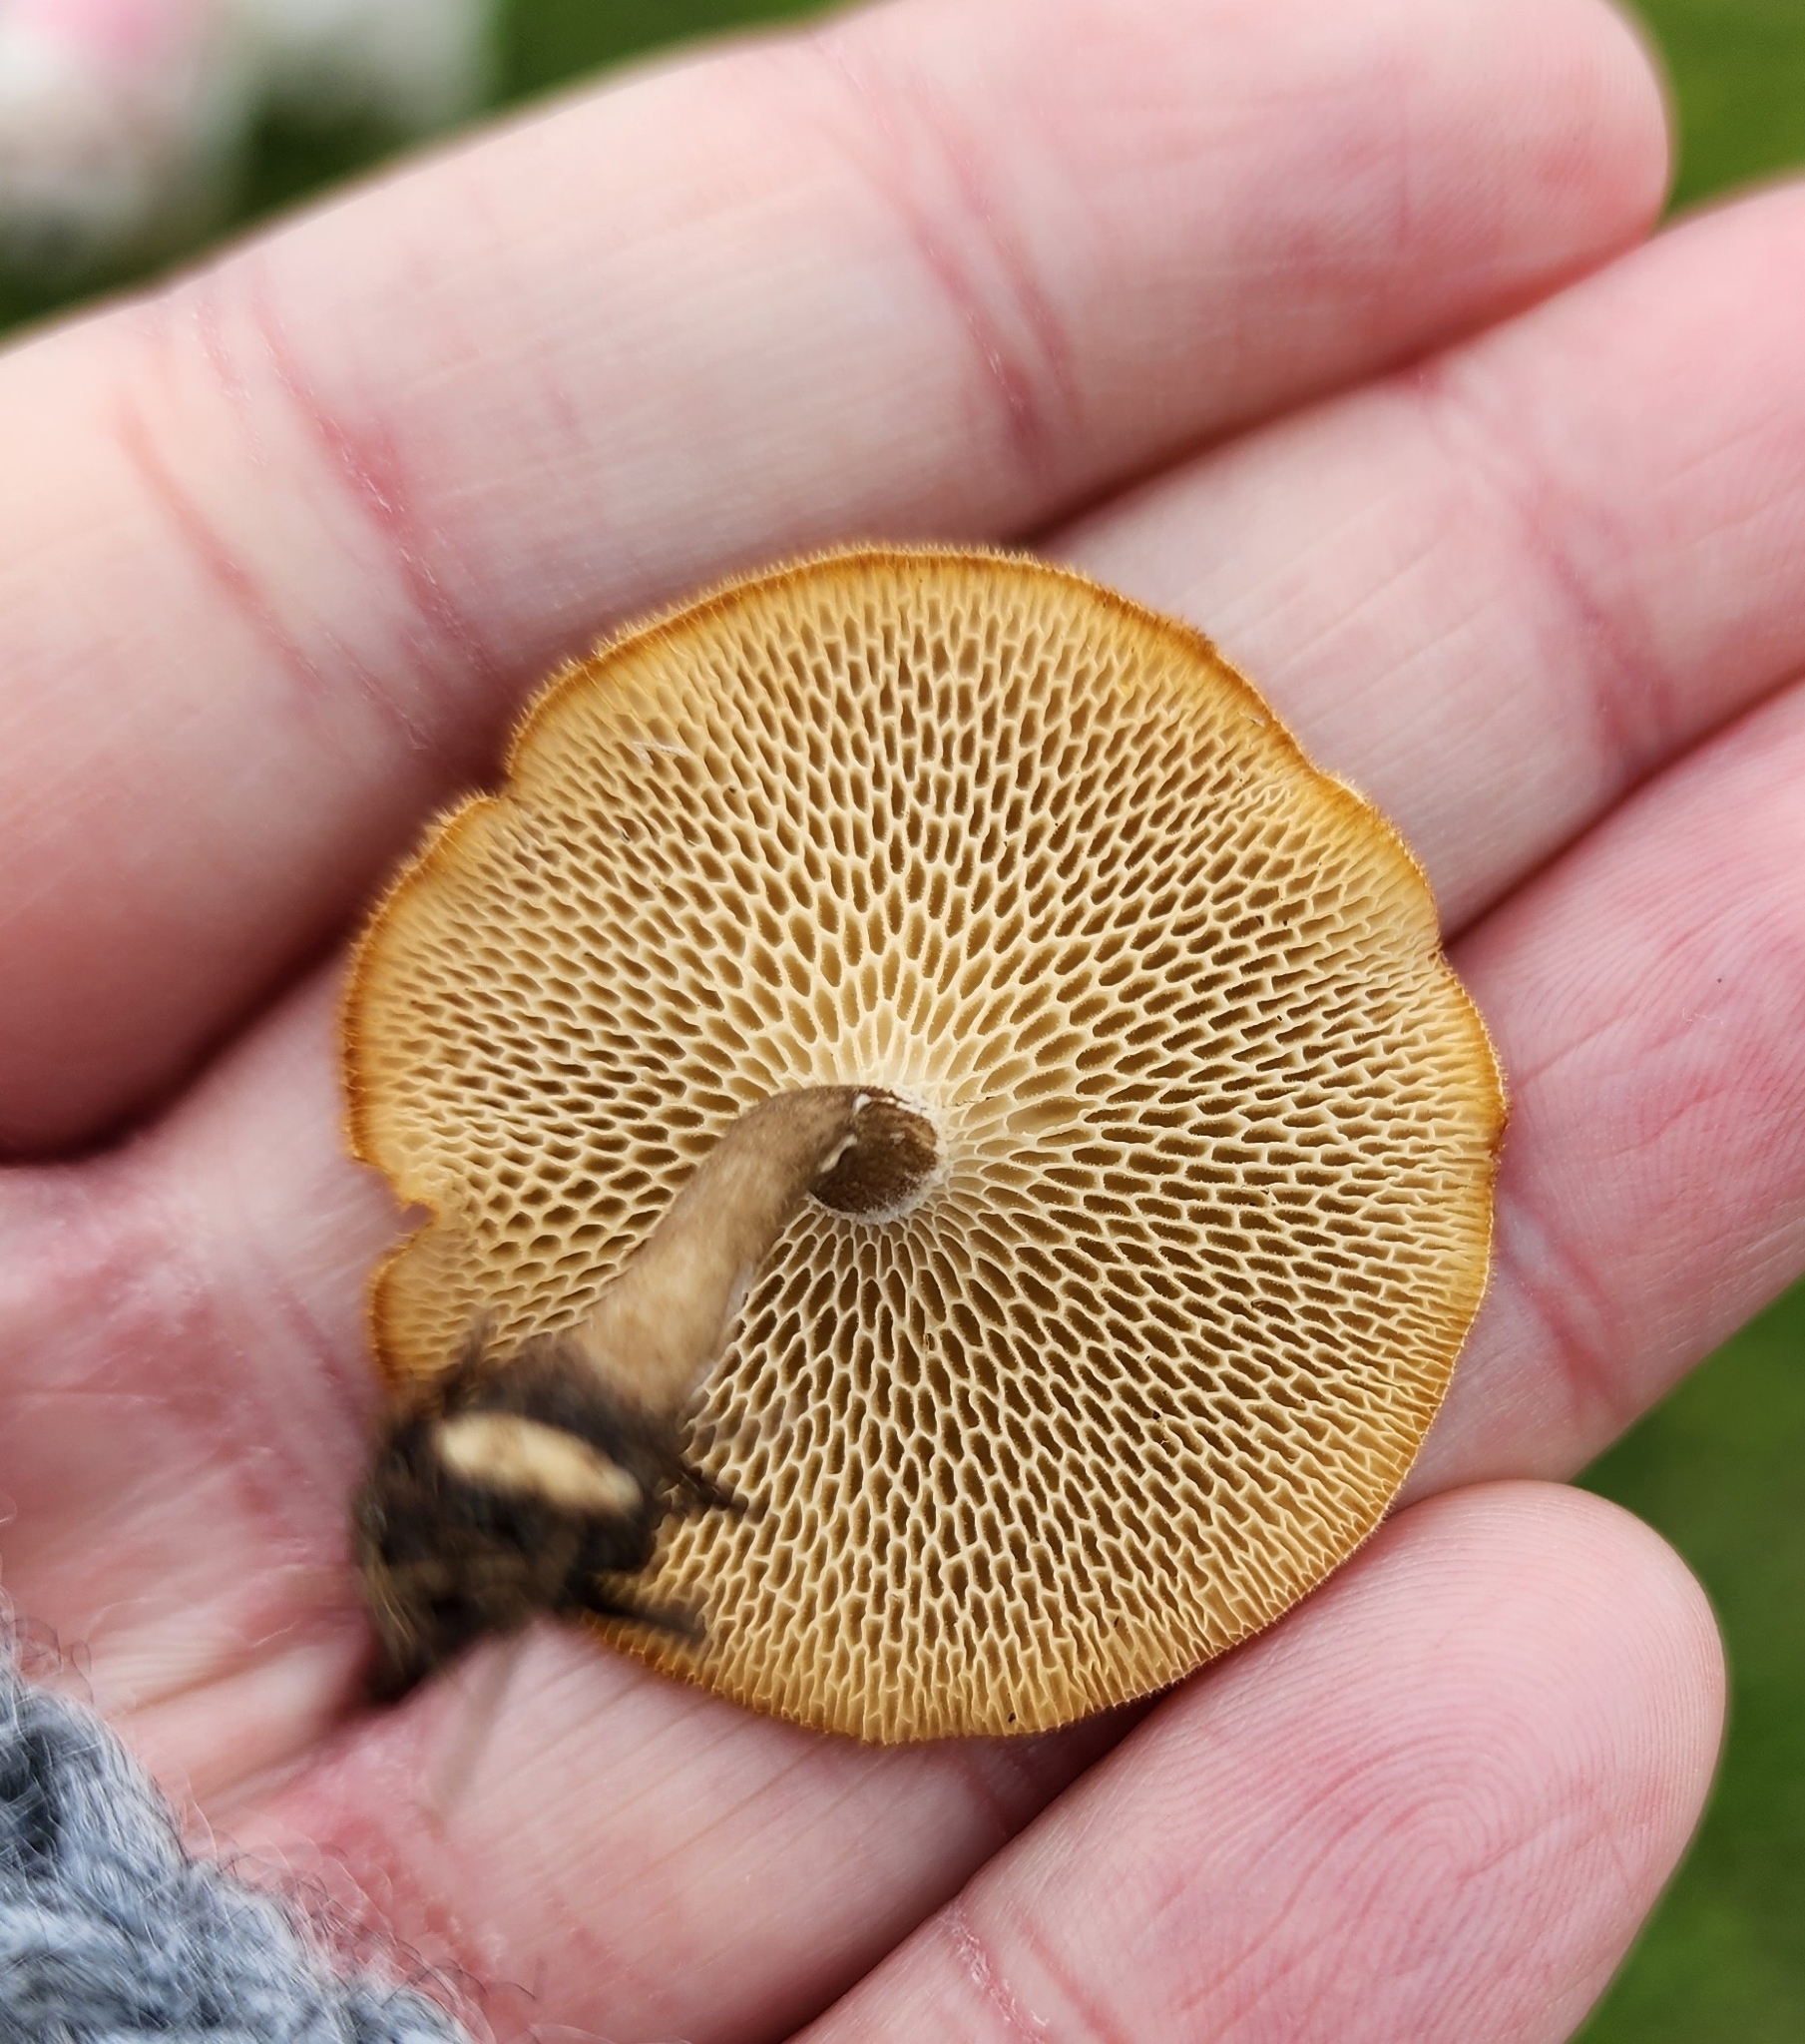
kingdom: Fungi
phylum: Basidiomycota
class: Agaricomycetes
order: Polyporales
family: Polyporaceae
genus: Lentinus
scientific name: Lentinus arcularius
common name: Spring polypore
